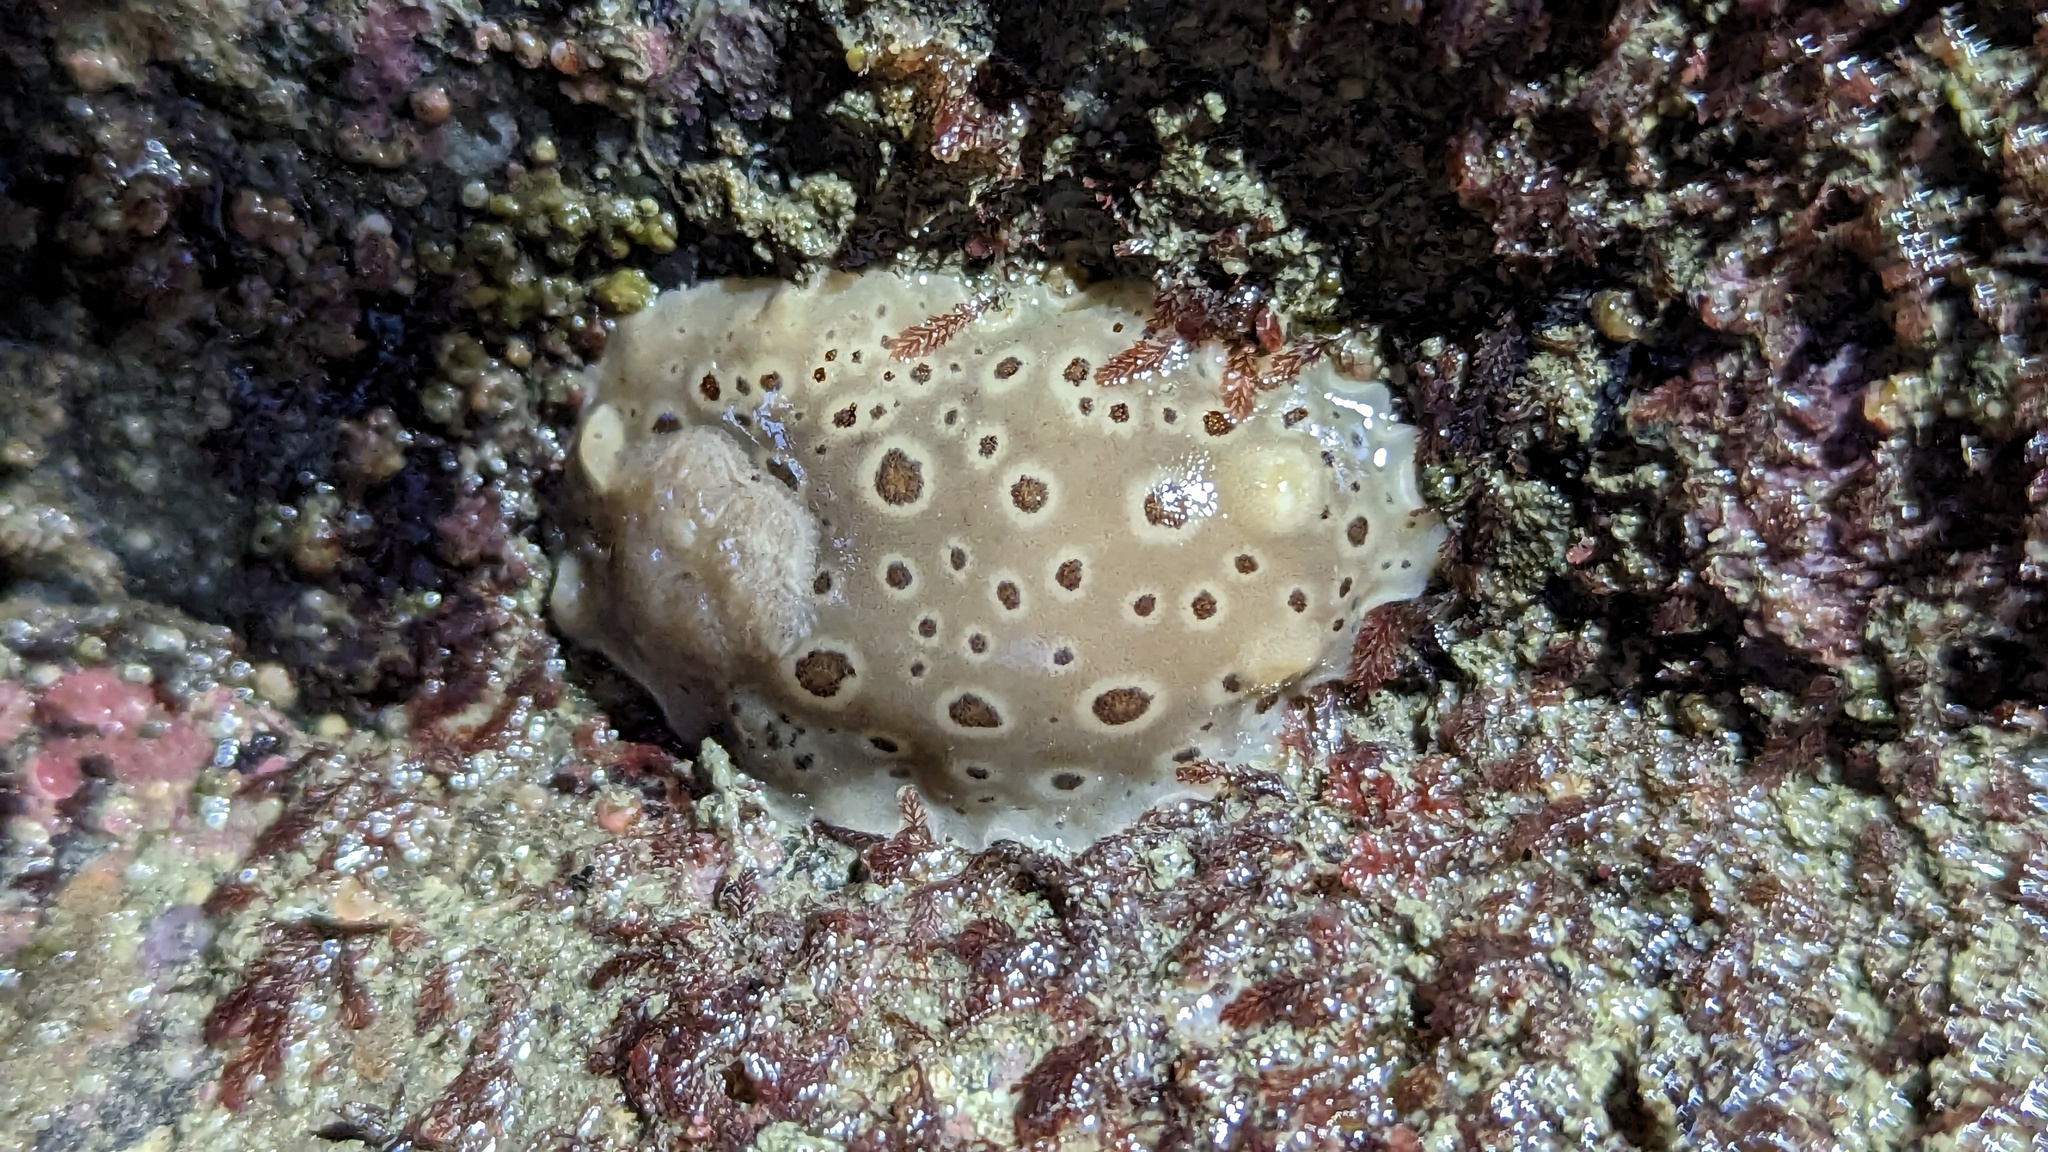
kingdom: Animalia
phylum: Mollusca
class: Gastropoda
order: Nudibranchia
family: Discodorididae
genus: Diaulula
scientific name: Diaulula odonoghuei
